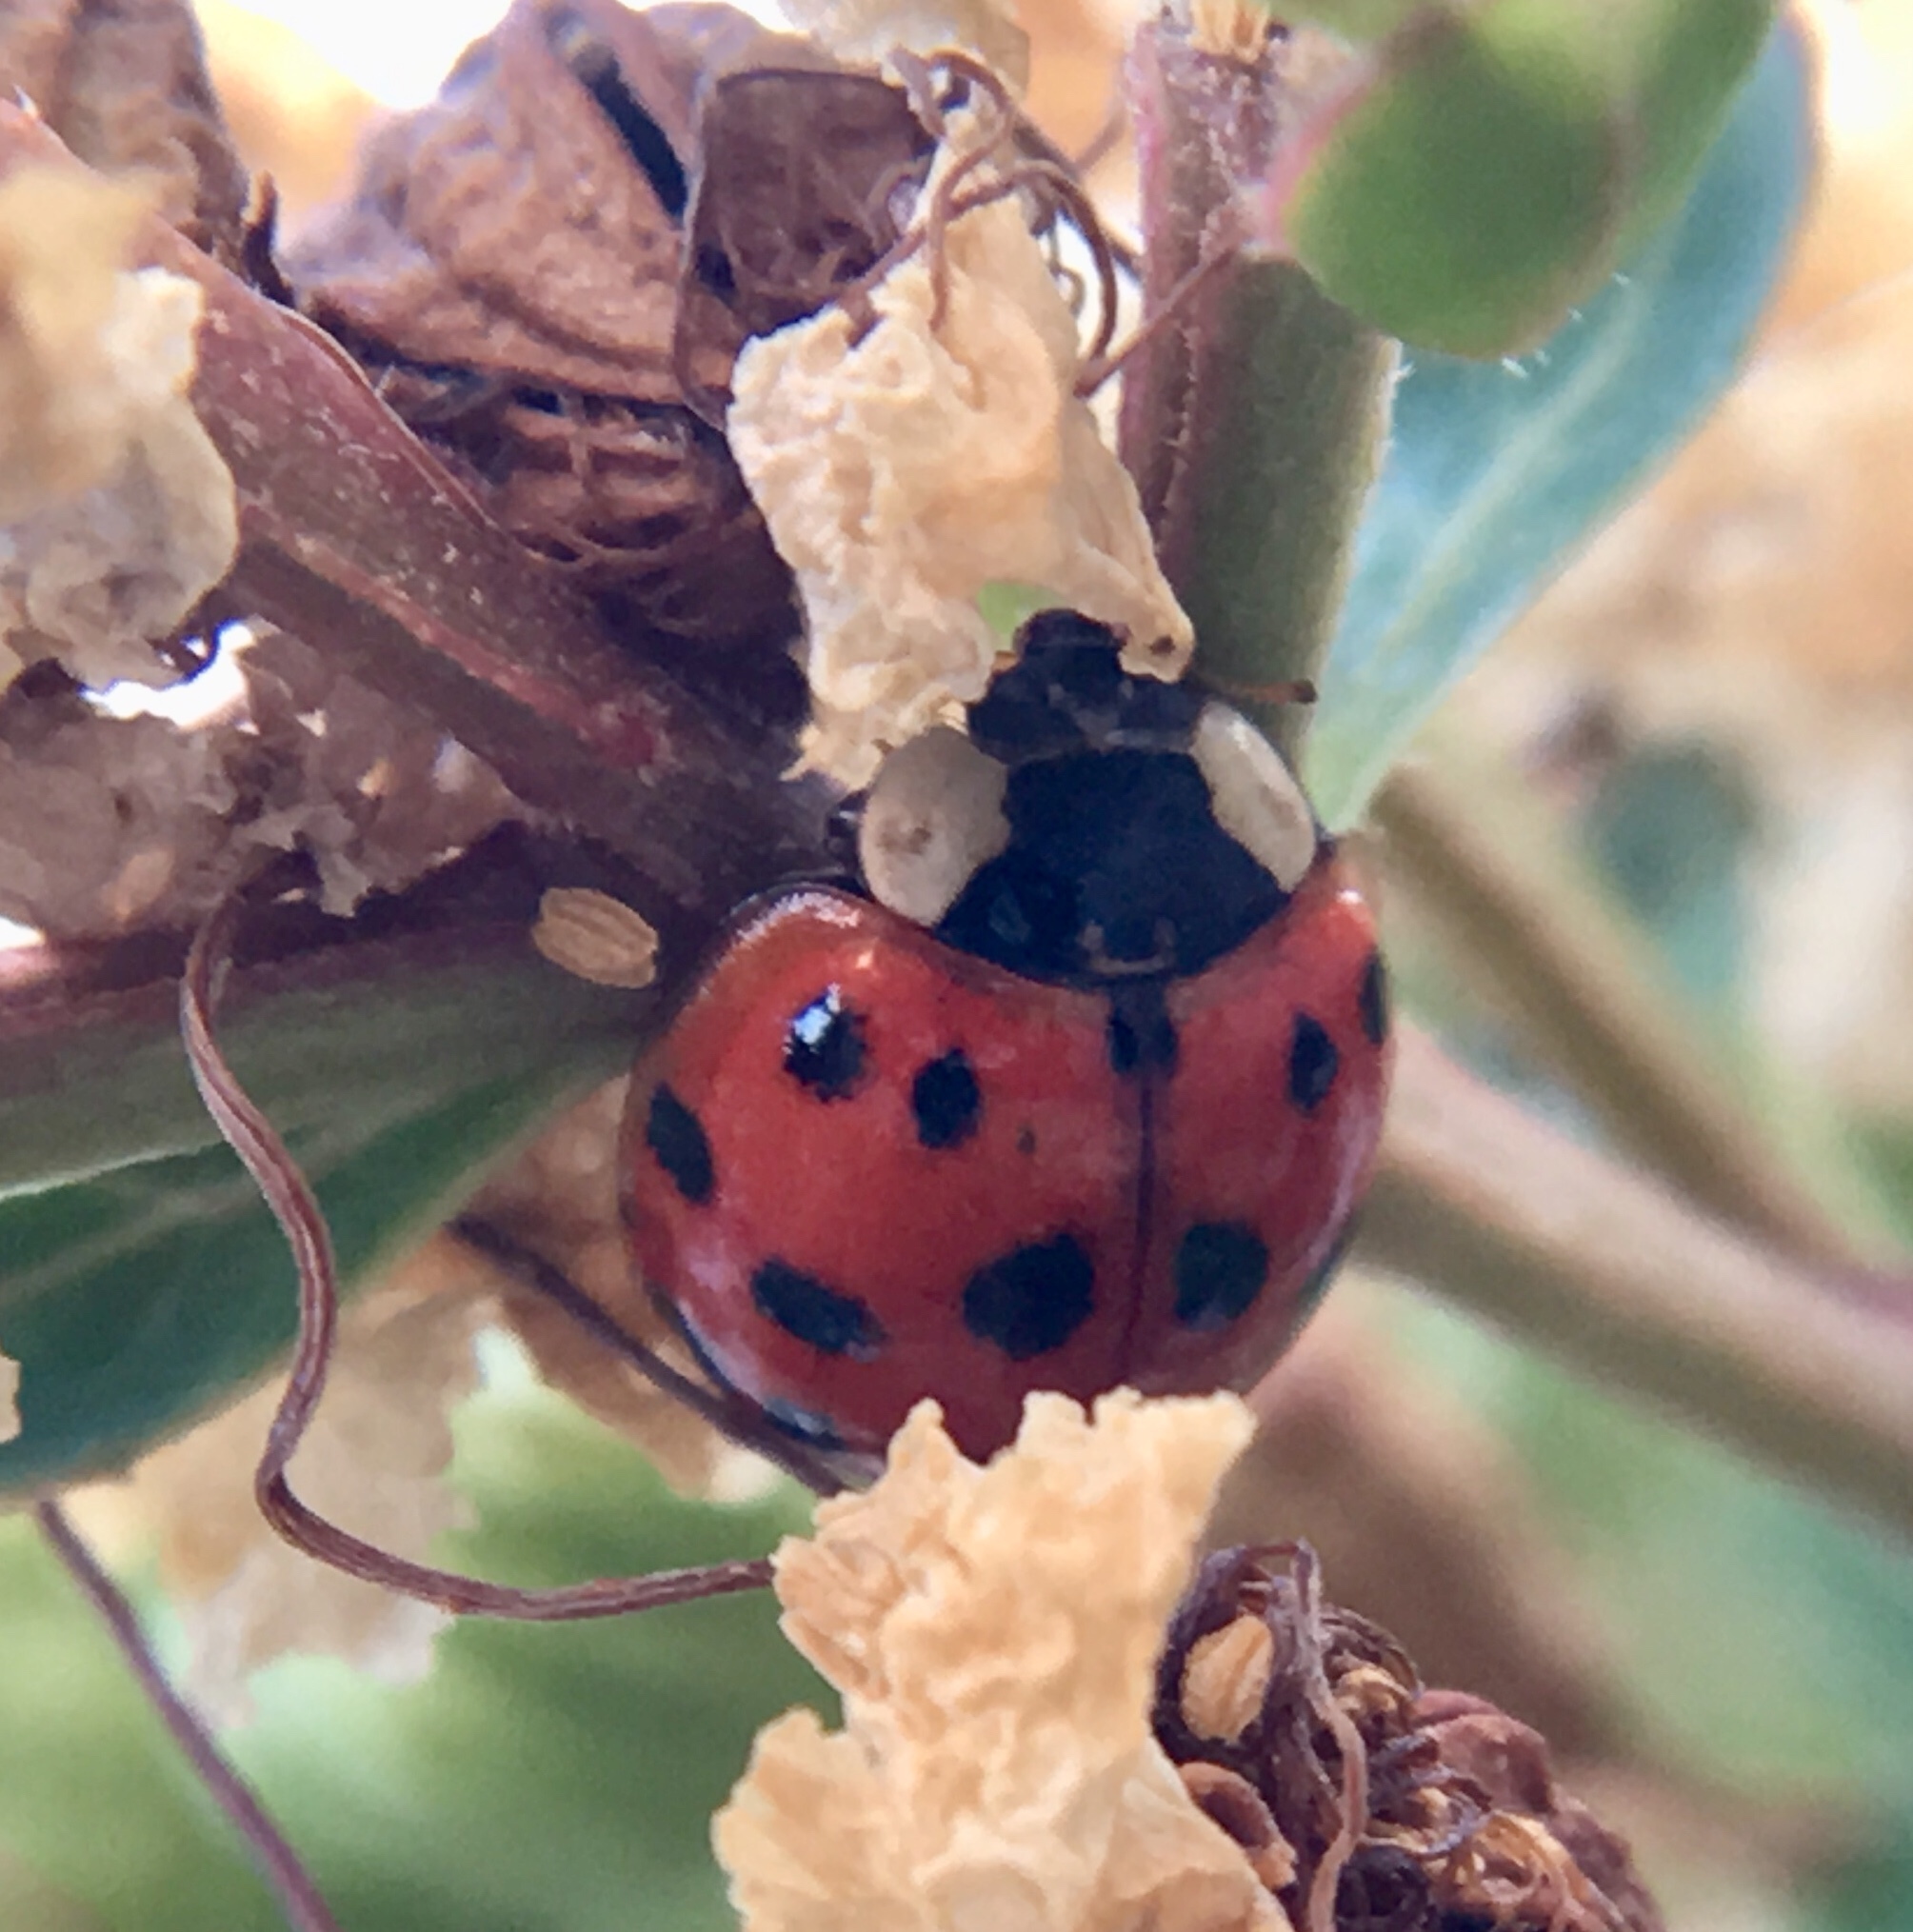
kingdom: Animalia
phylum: Arthropoda
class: Insecta
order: Coleoptera
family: Coccinellidae
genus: Harmonia
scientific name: Harmonia axyridis
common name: Harlequin ladybird
